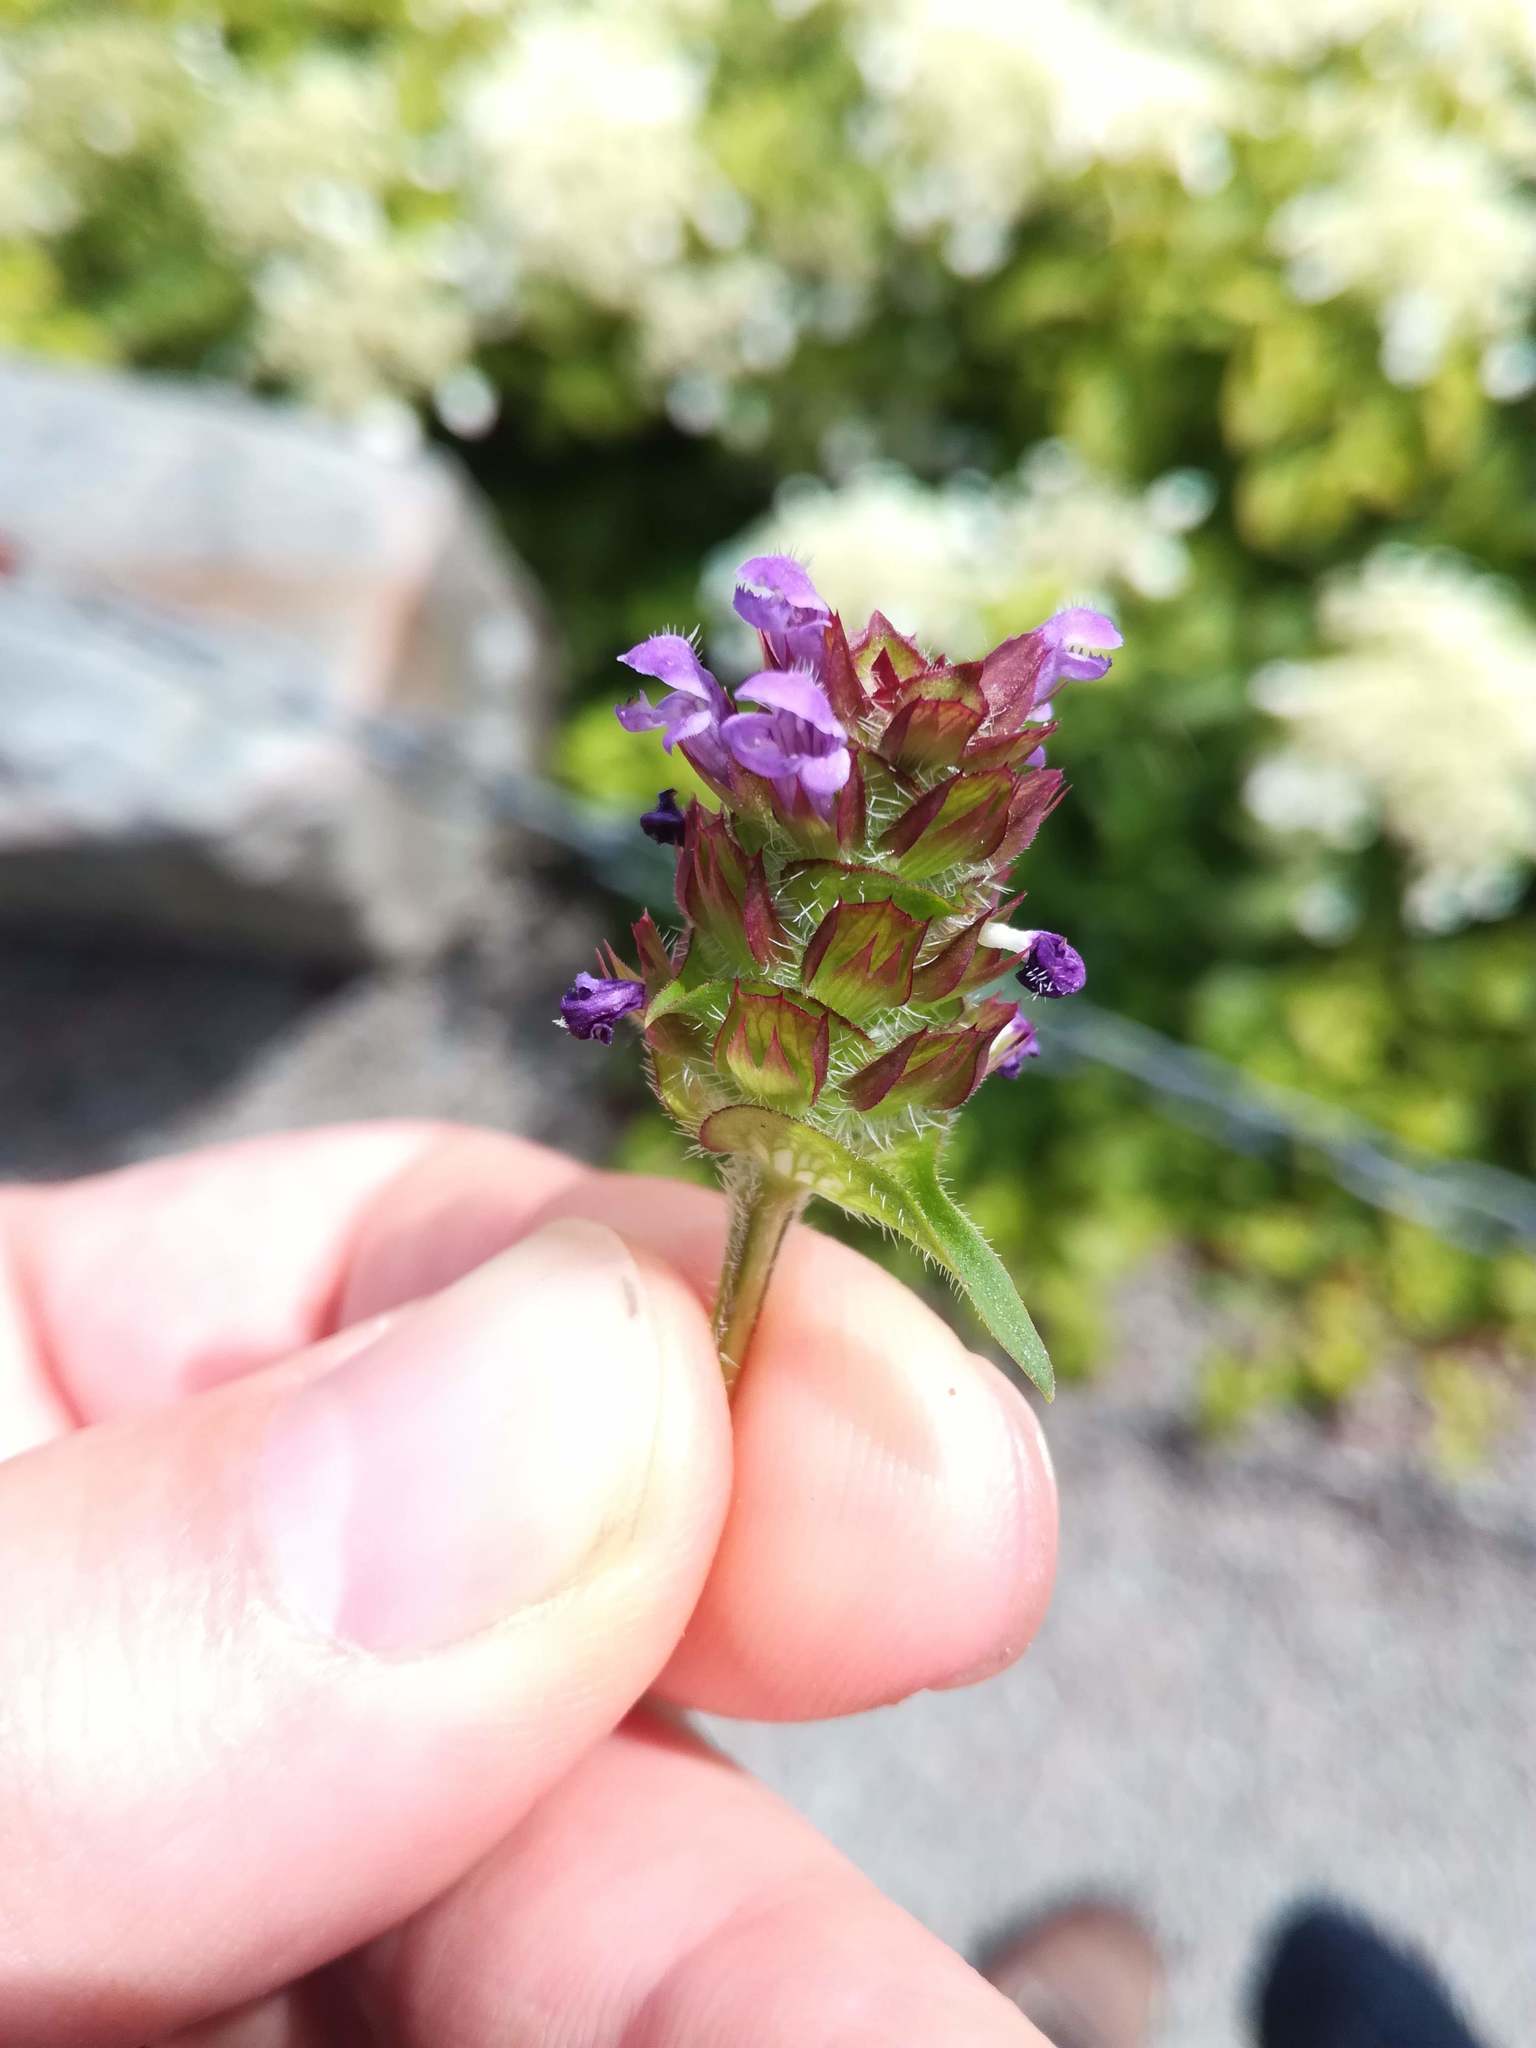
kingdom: Plantae
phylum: Tracheophyta
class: Magnoliopsida
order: Lamiales
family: Lamiaceae
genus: Prunella
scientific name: Prunella vulgaris
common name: Heal-all
